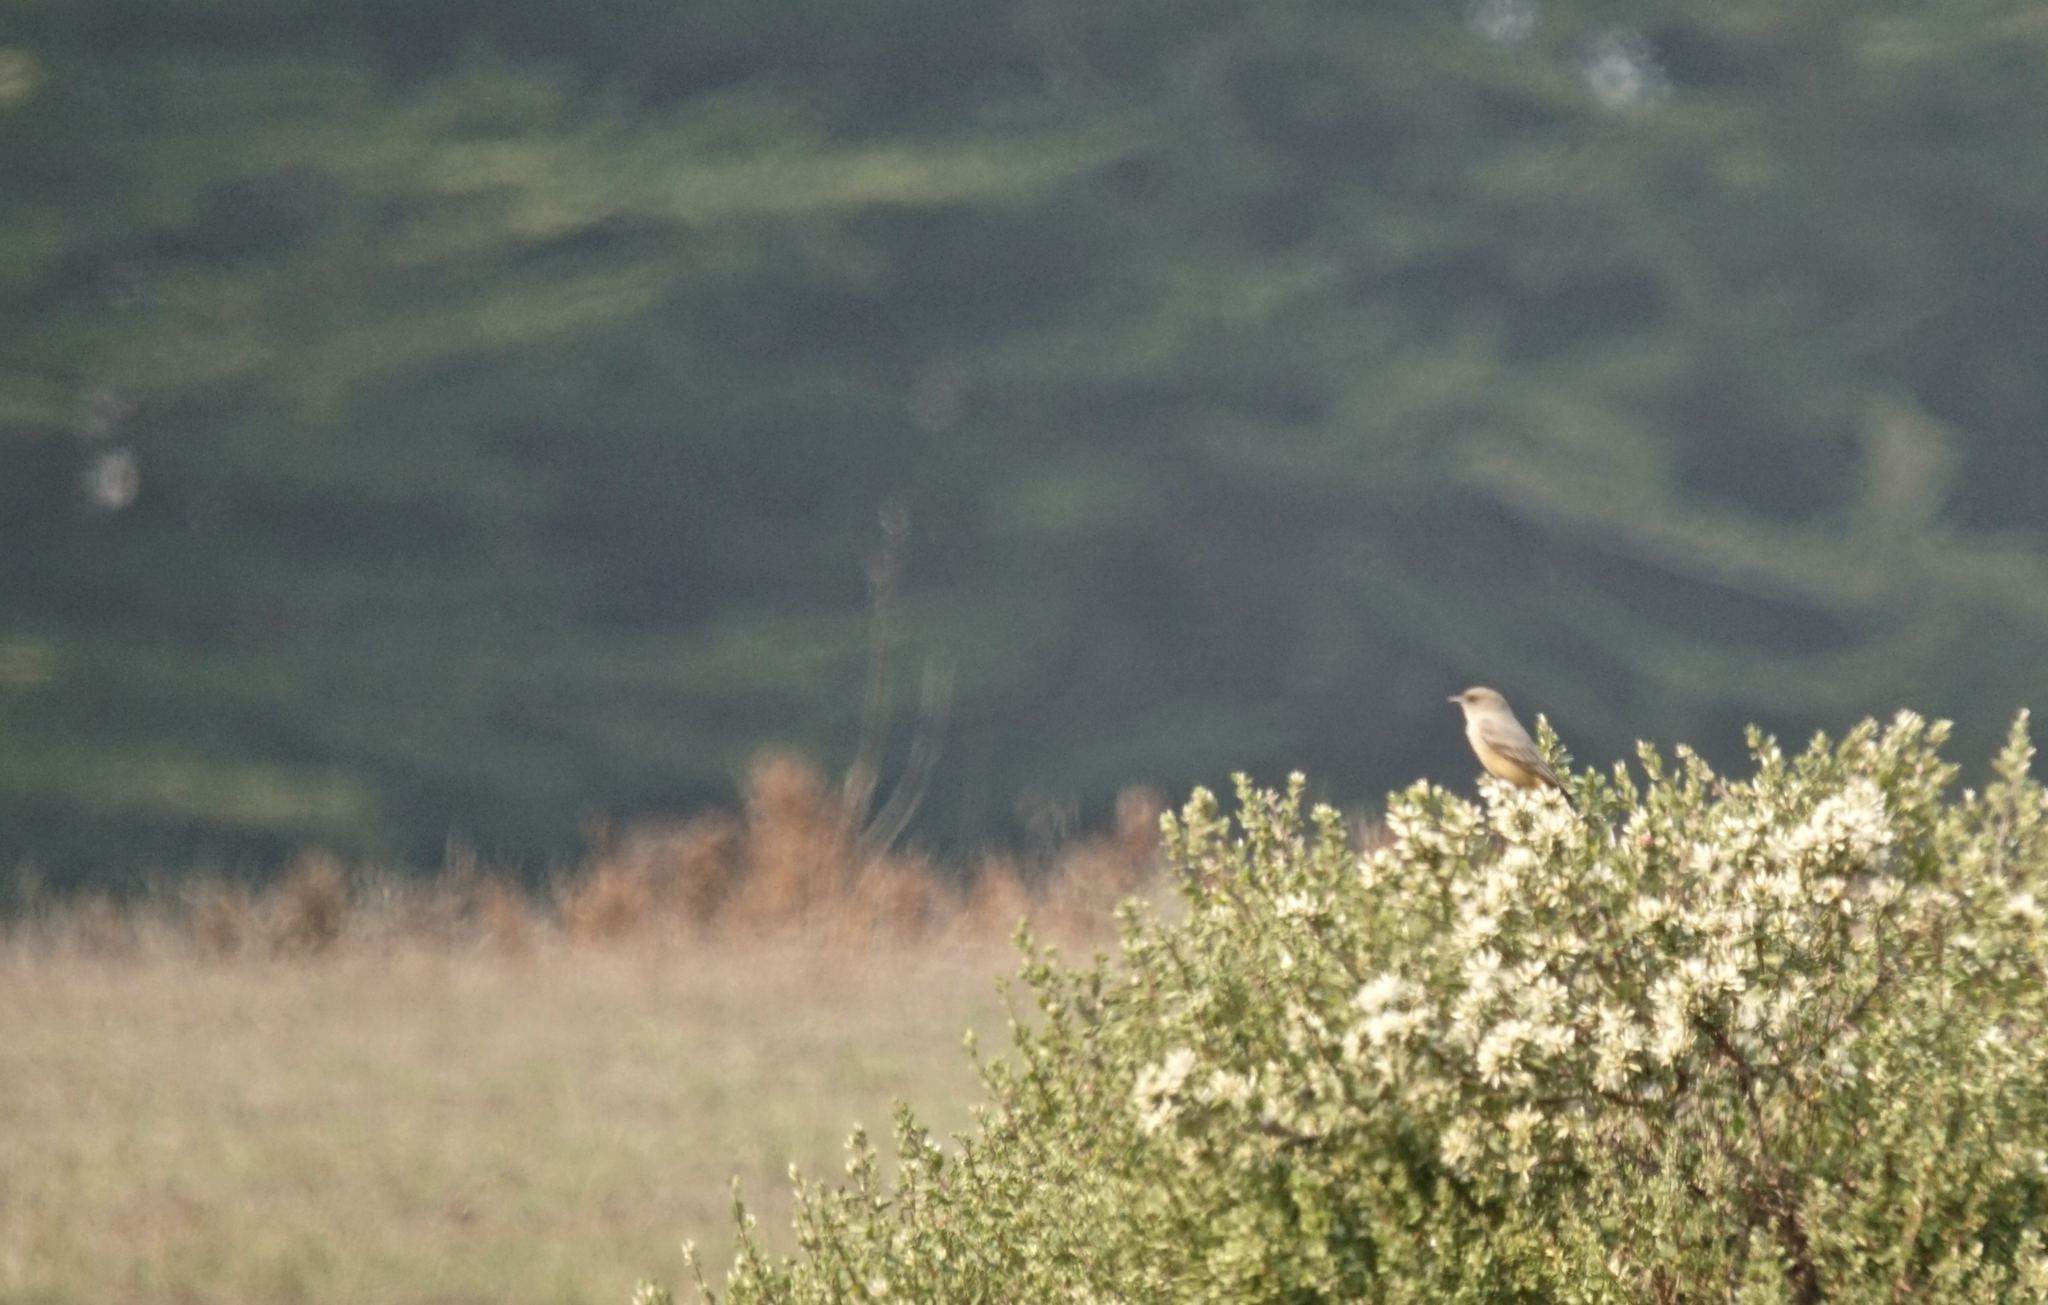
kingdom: Animalia
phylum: Chordata
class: Aves
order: Passeriformes
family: Tyrannidae
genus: Sayornis
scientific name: Sayornis saya
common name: Say's phoebe
